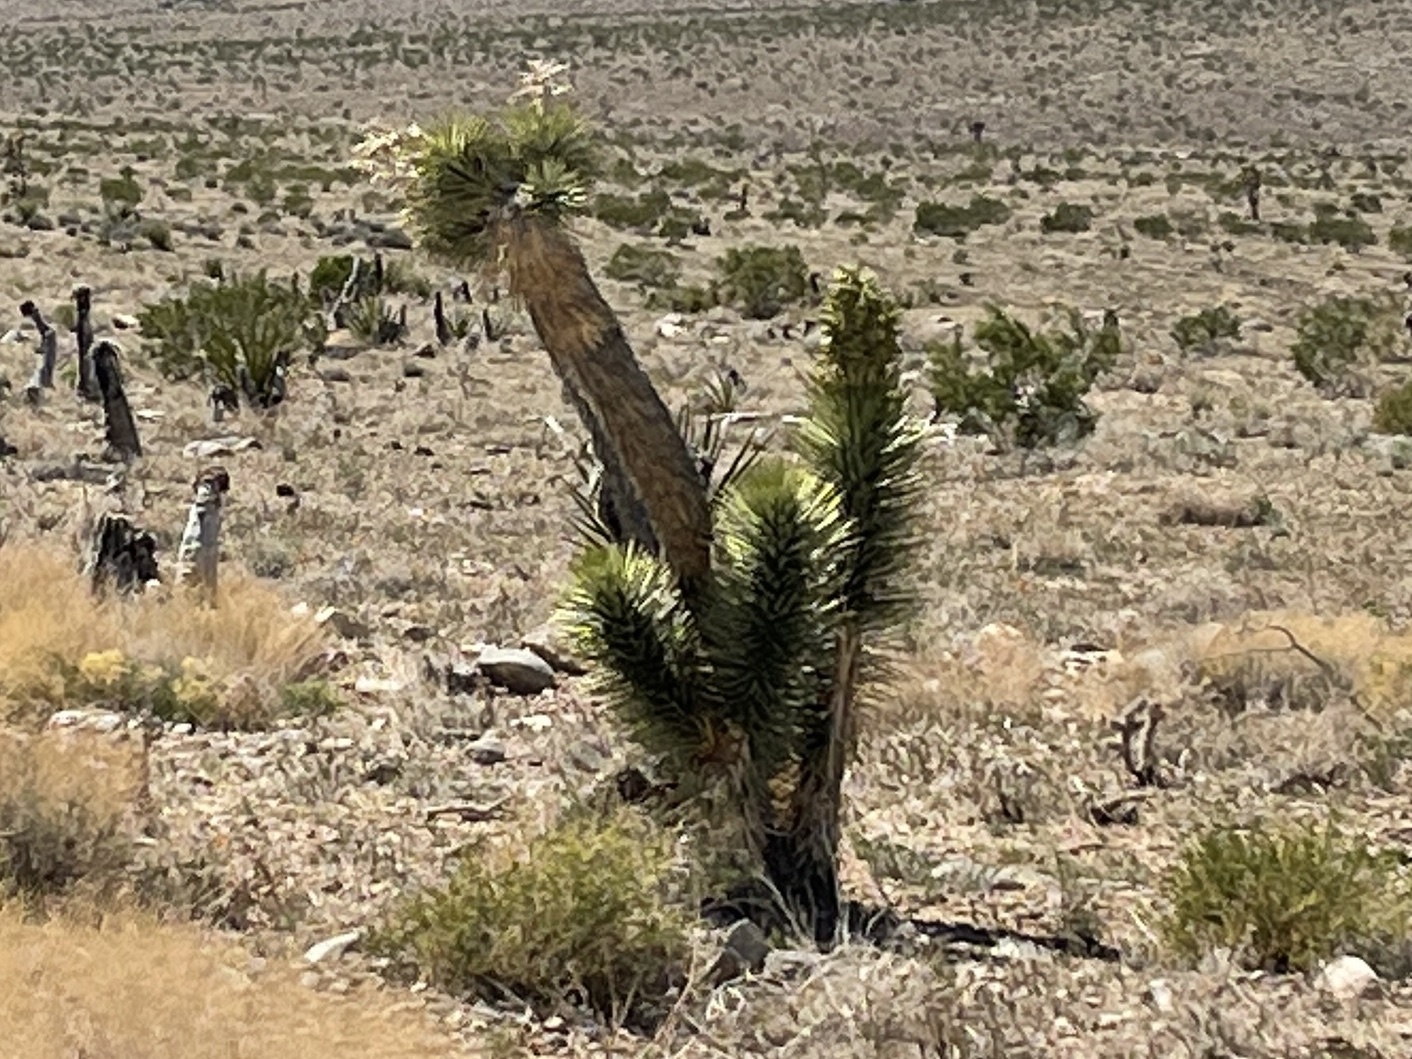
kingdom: Plantae
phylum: Tracheophyta
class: Liliopsida
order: Asparagales
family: Asparagaceae
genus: Yucca
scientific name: Yucca brevifolia
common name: Joshua tree
